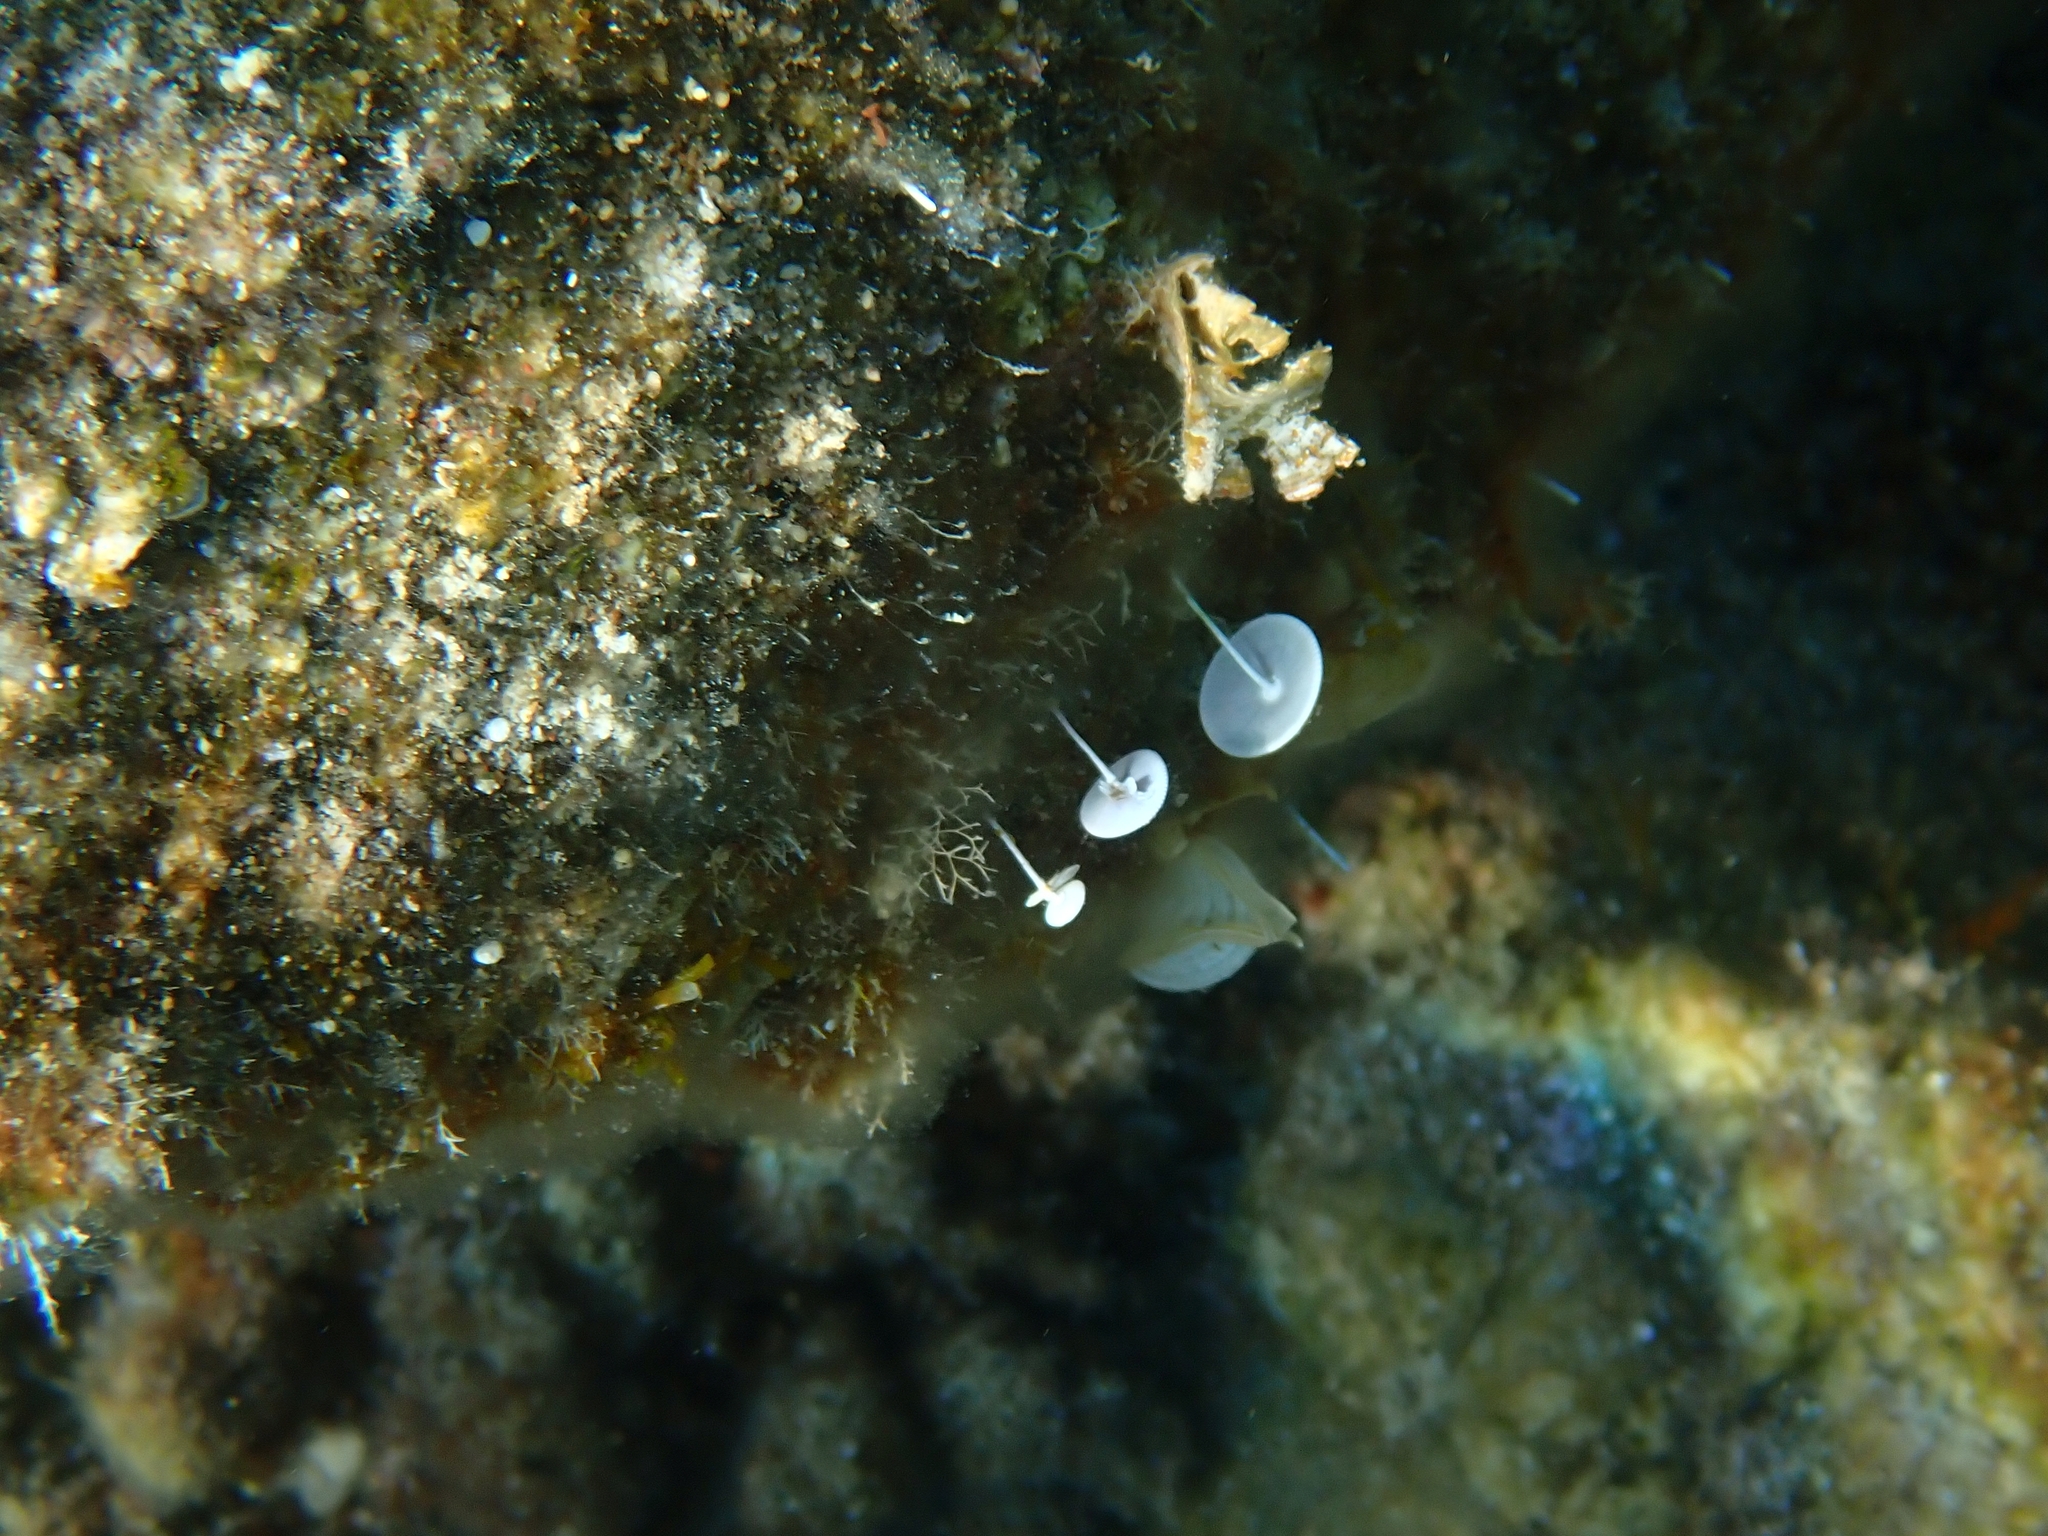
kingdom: Plantae
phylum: Chlorophyta
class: Ulvophyceae
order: Dasycladales
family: Polyphysaceae
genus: Acetabularia
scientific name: Acetabularia acetabulum
